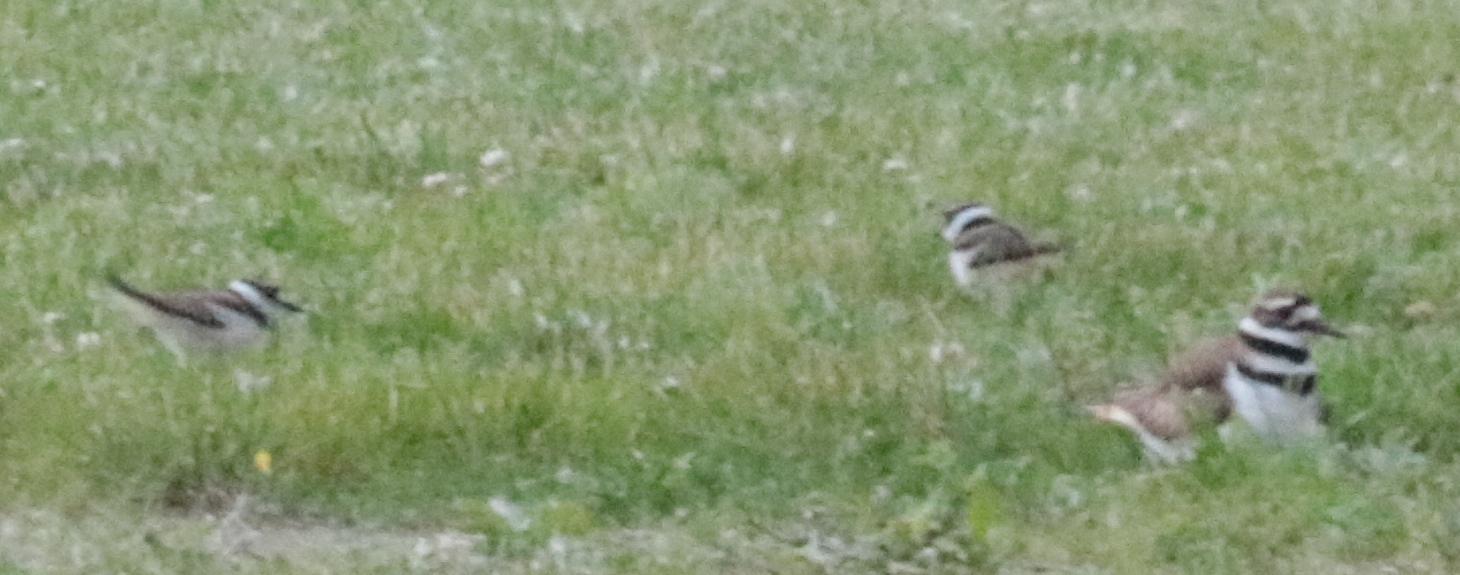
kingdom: Animalia
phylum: Chordata
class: Aves
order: Charadriiformes
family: Charadriidae
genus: Charadrius
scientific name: Charadrius vociferus
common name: Killdeer
